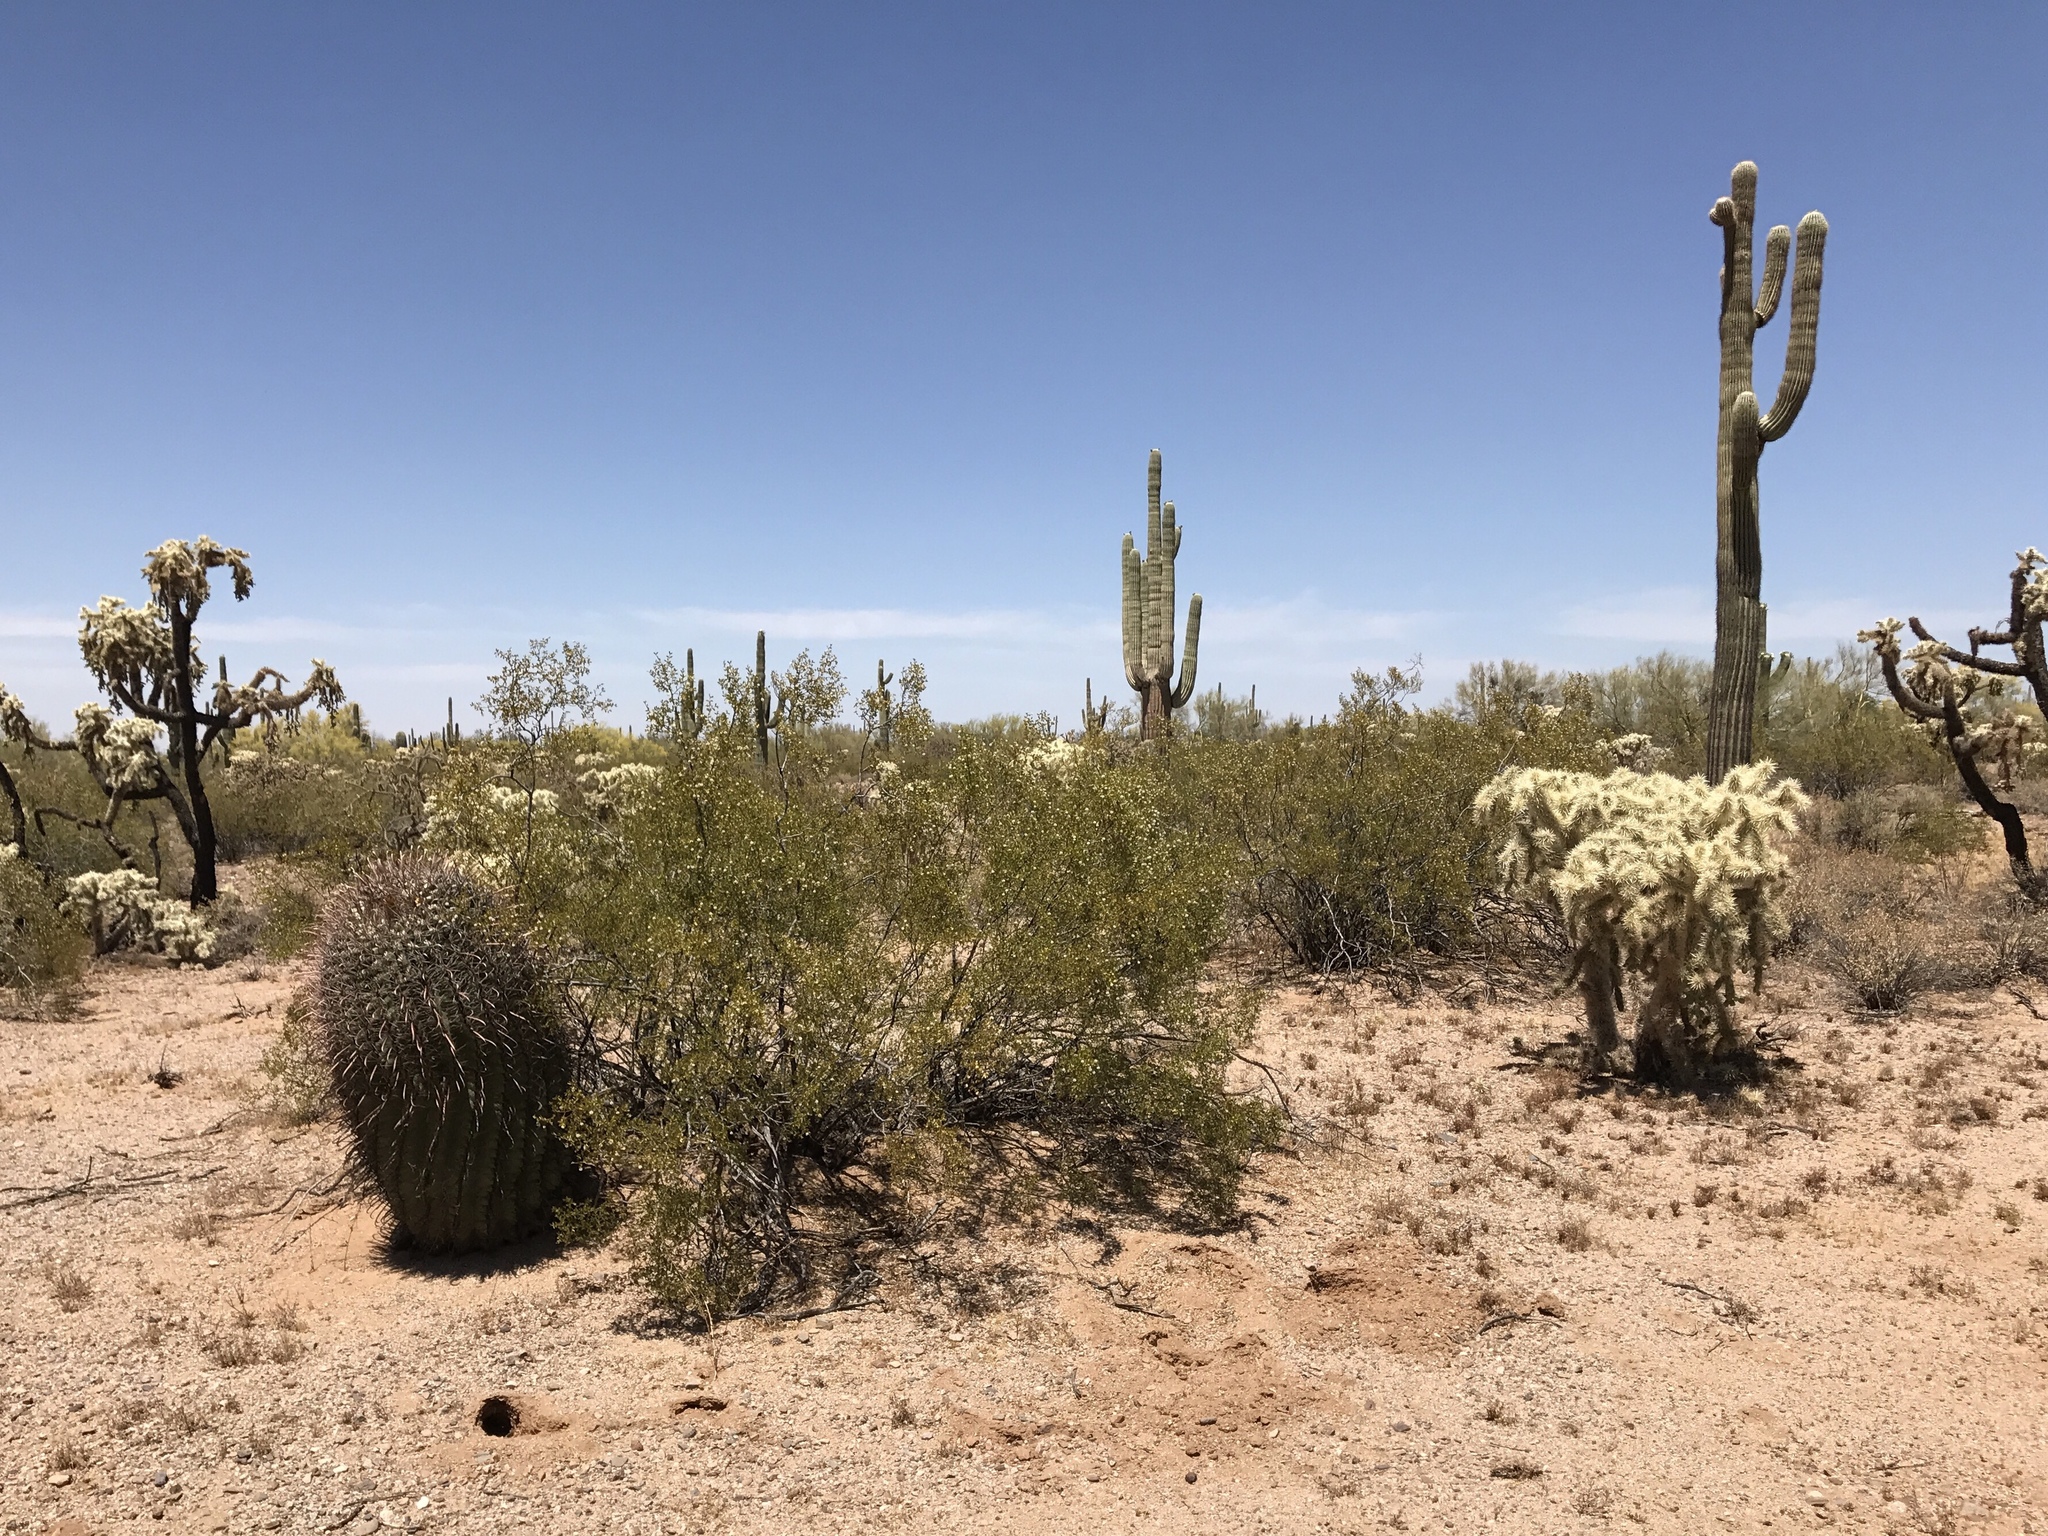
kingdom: Plantae
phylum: Tracheophyta
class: Magnoliopsida
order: Caryophyllales
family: Cactaceae
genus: Cylindropuntia
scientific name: Cylindropuntia fulgida
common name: Jumping cholla
